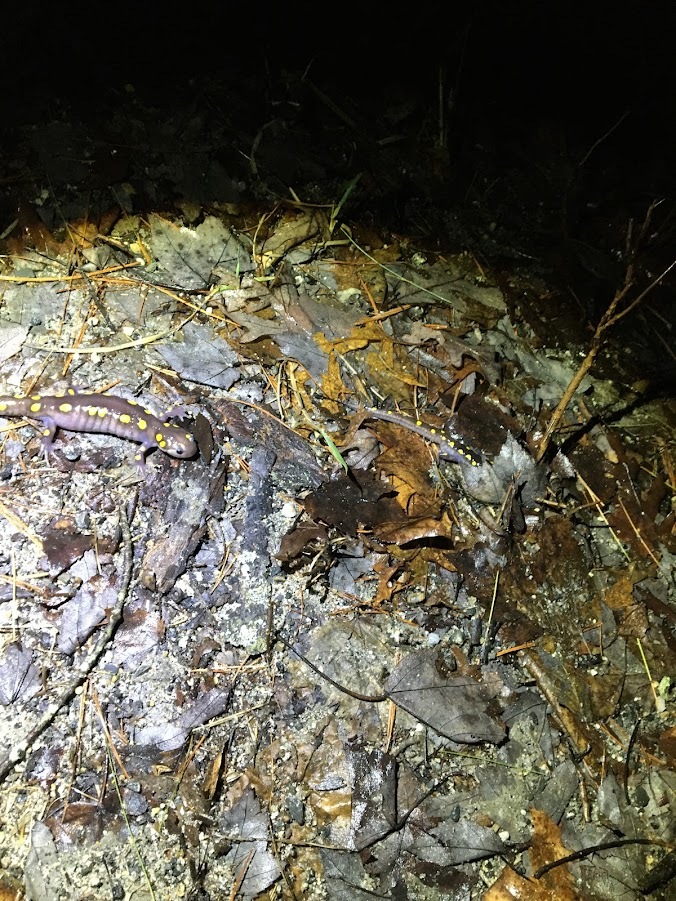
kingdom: Animalia
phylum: Chordata
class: Amphibia
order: Caudata
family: Ambystomatidae
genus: Ambystoma
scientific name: Ambystoma maculatum
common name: Spotted salamander
